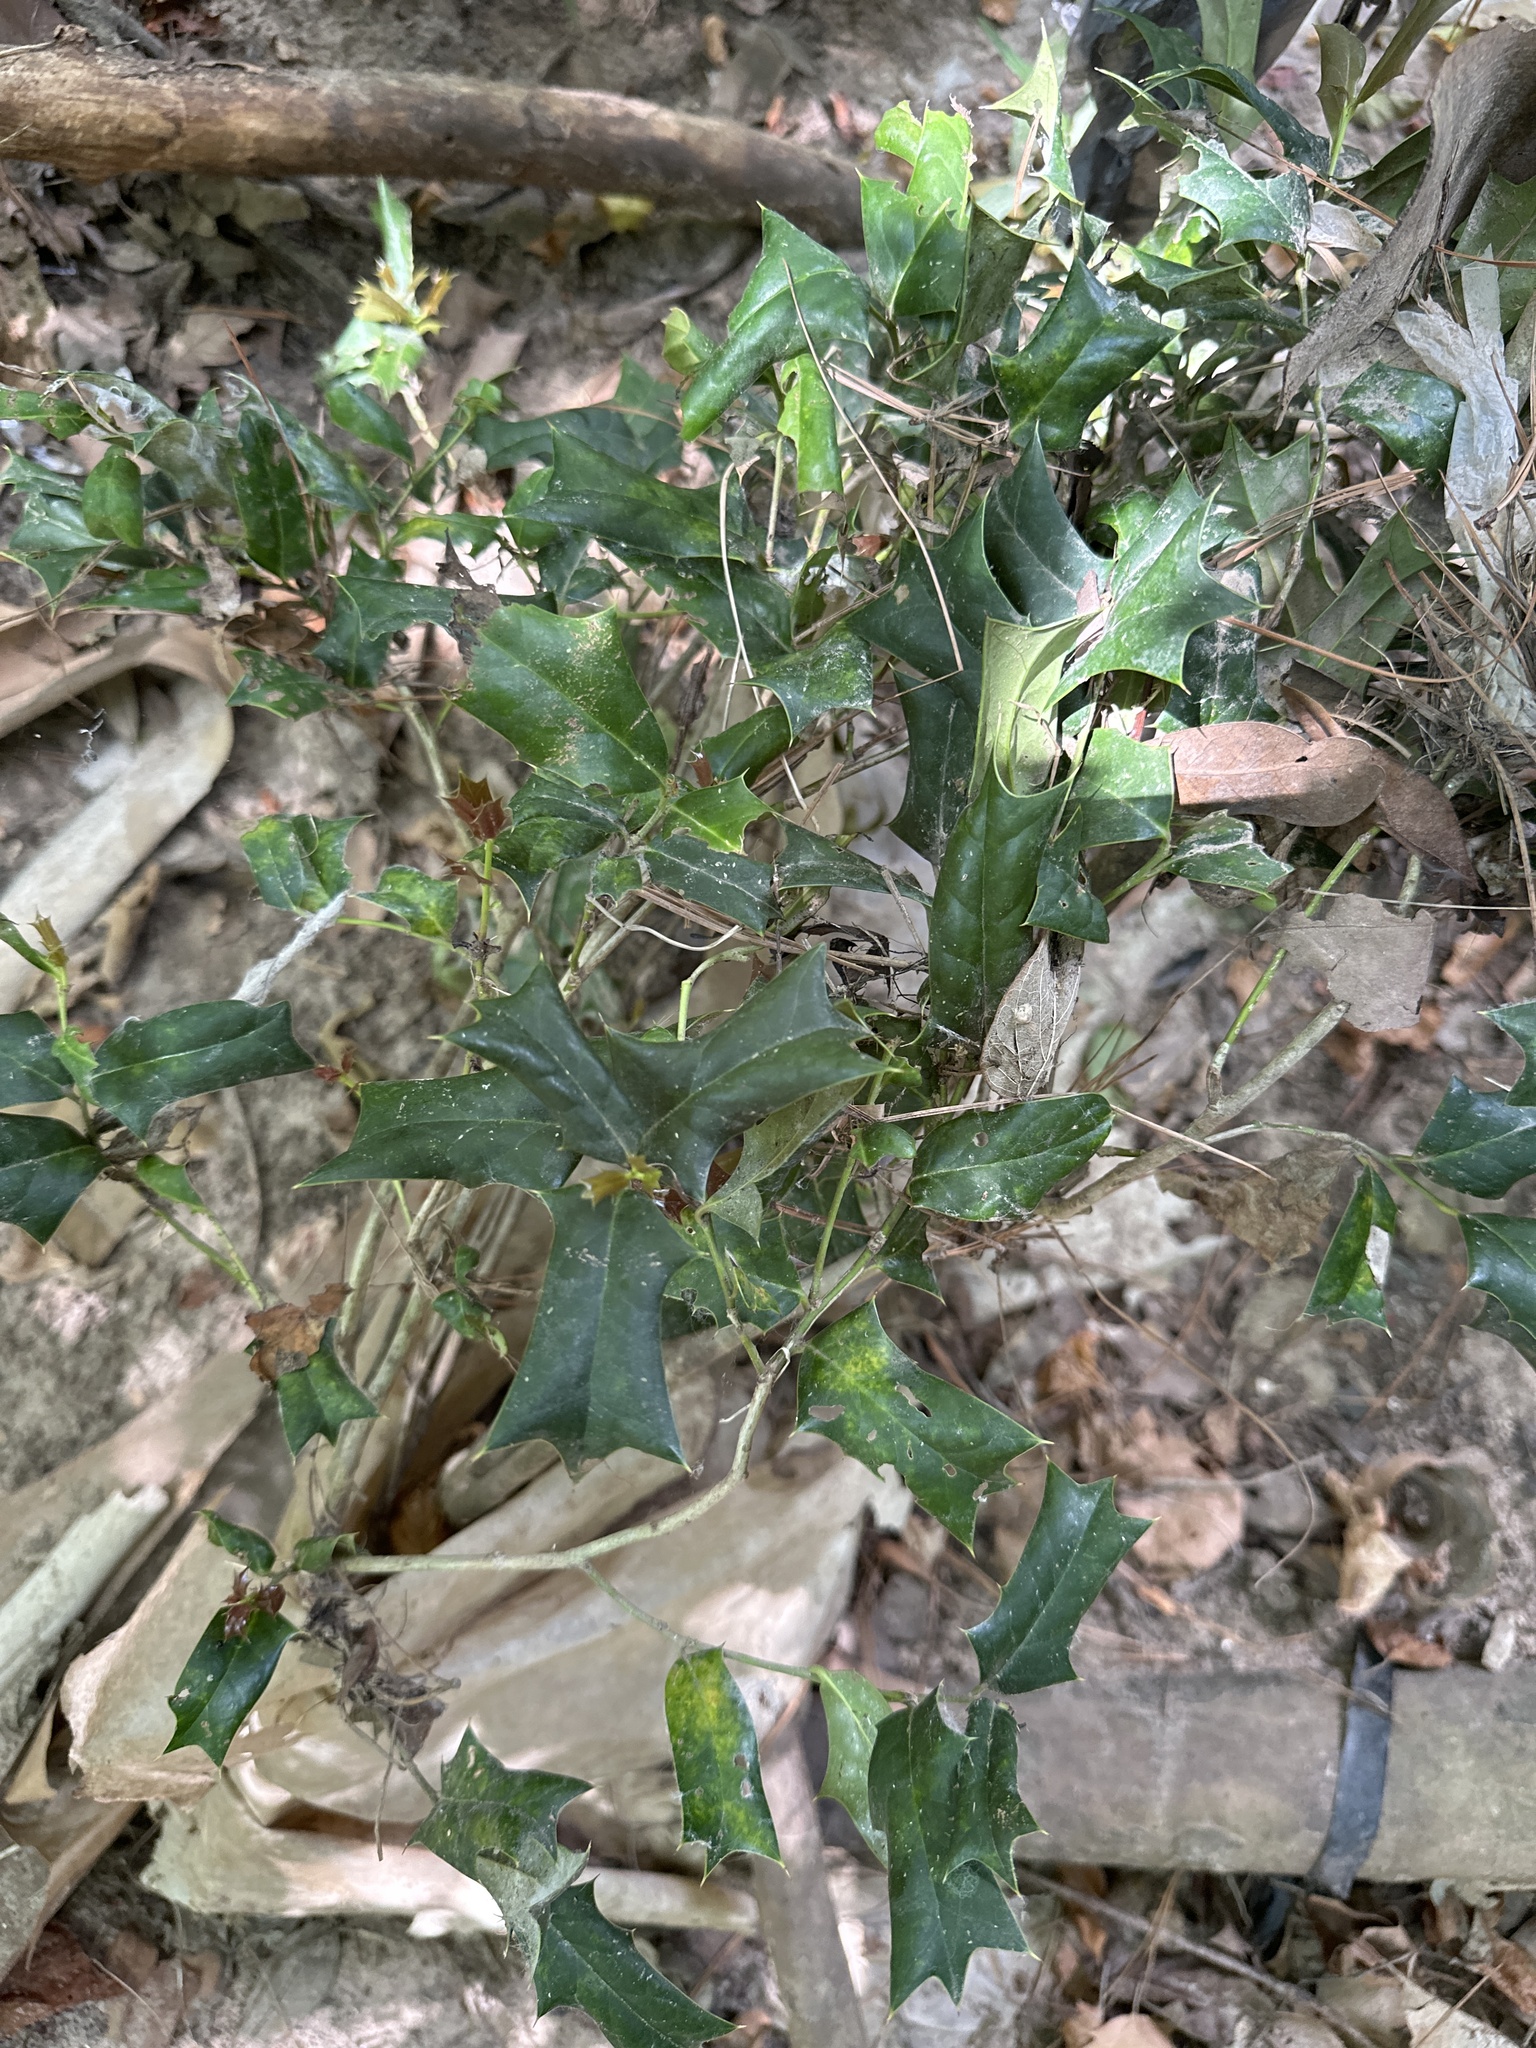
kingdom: Plantae
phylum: Tracheophyta
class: Magnoliopsida
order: Aquifoliales
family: Aquifoliaceae
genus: Ilex
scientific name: Ilex cornuta
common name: Chinese holly
